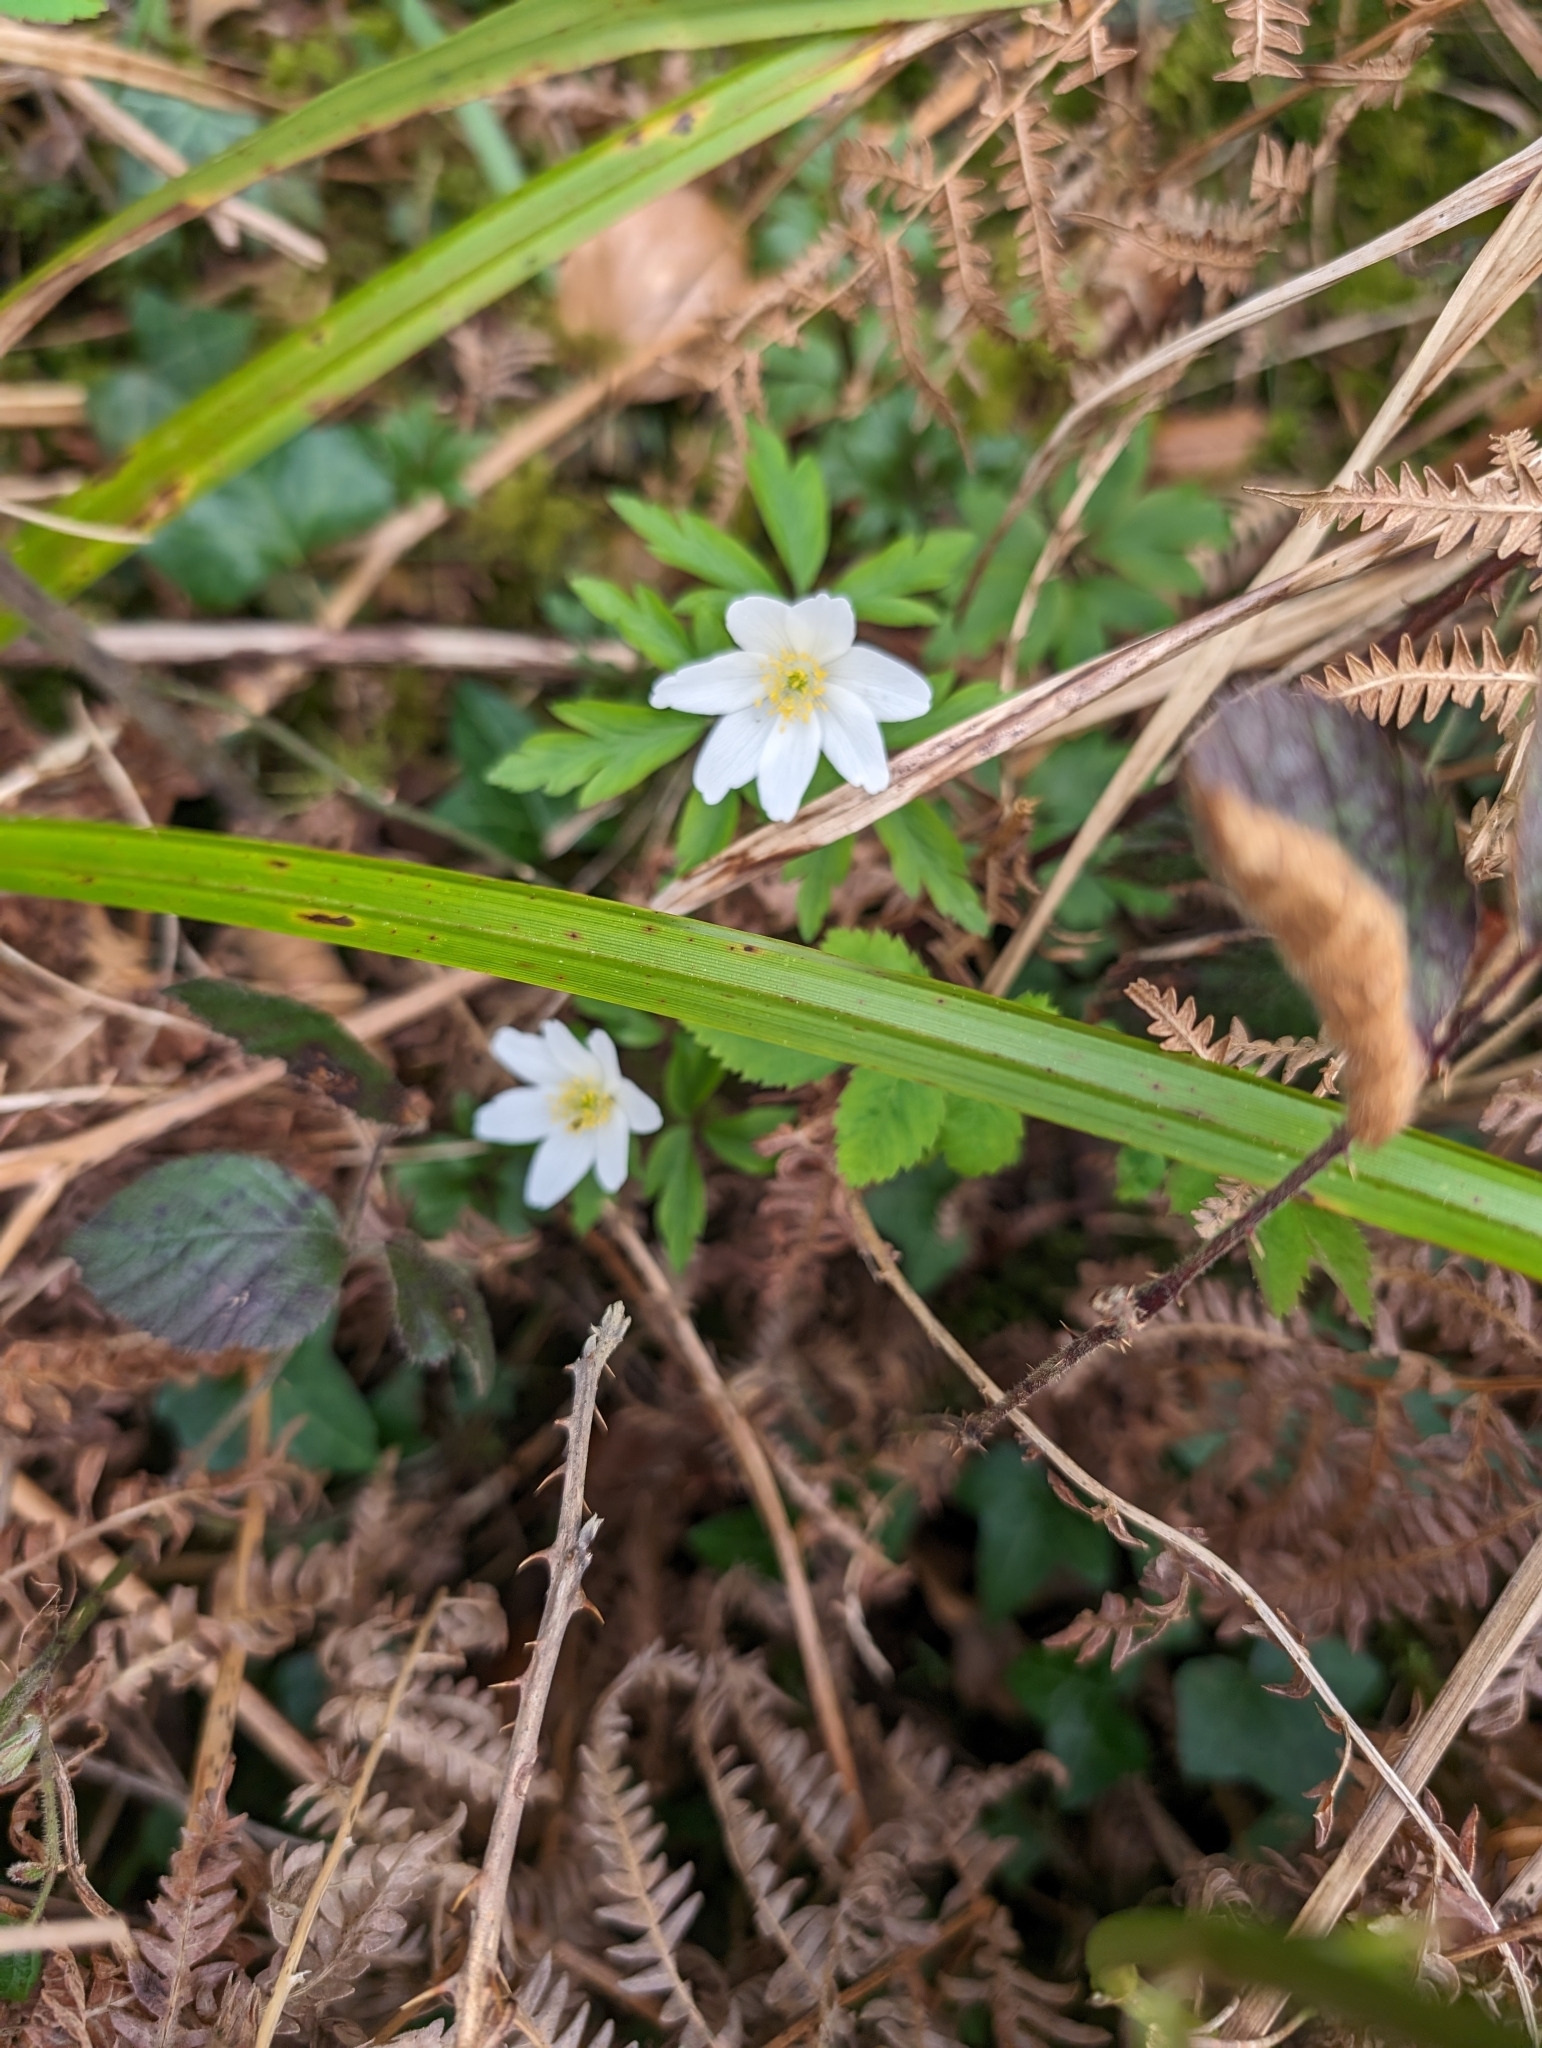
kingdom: Plantae
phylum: Tracheophyta
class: Magnoliopsida
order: Ranunculales
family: Ranunculaceae
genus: Anemone
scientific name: Anemone nemorosa
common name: Wood anemone
